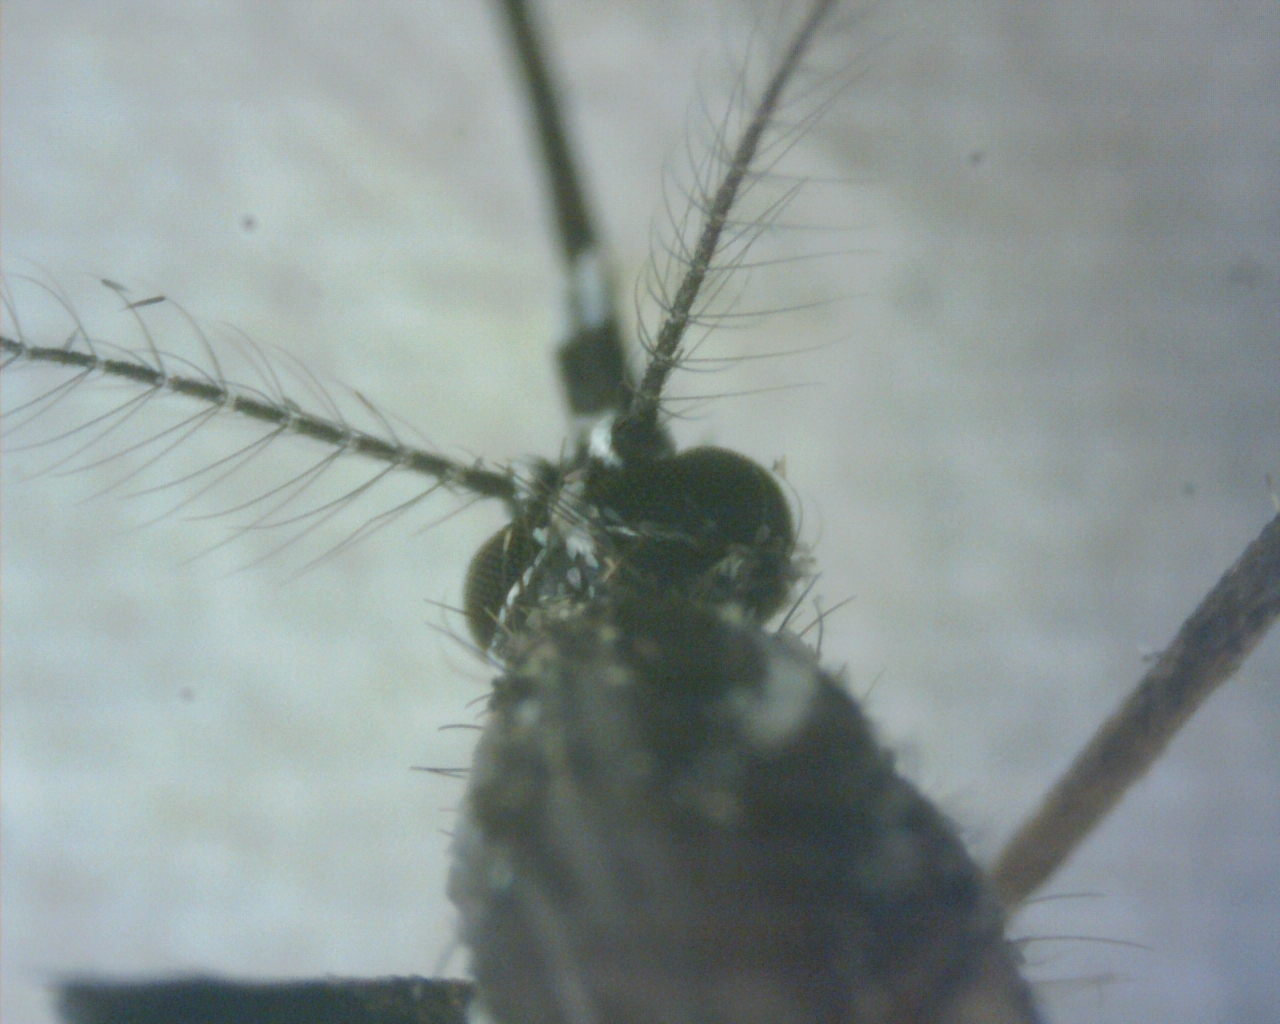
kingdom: Animalia
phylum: Arthropoda
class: Insecta
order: Diptera
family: Culicidae
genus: Aedes
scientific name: Aedes aegypti
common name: Yellow fever mosquito
